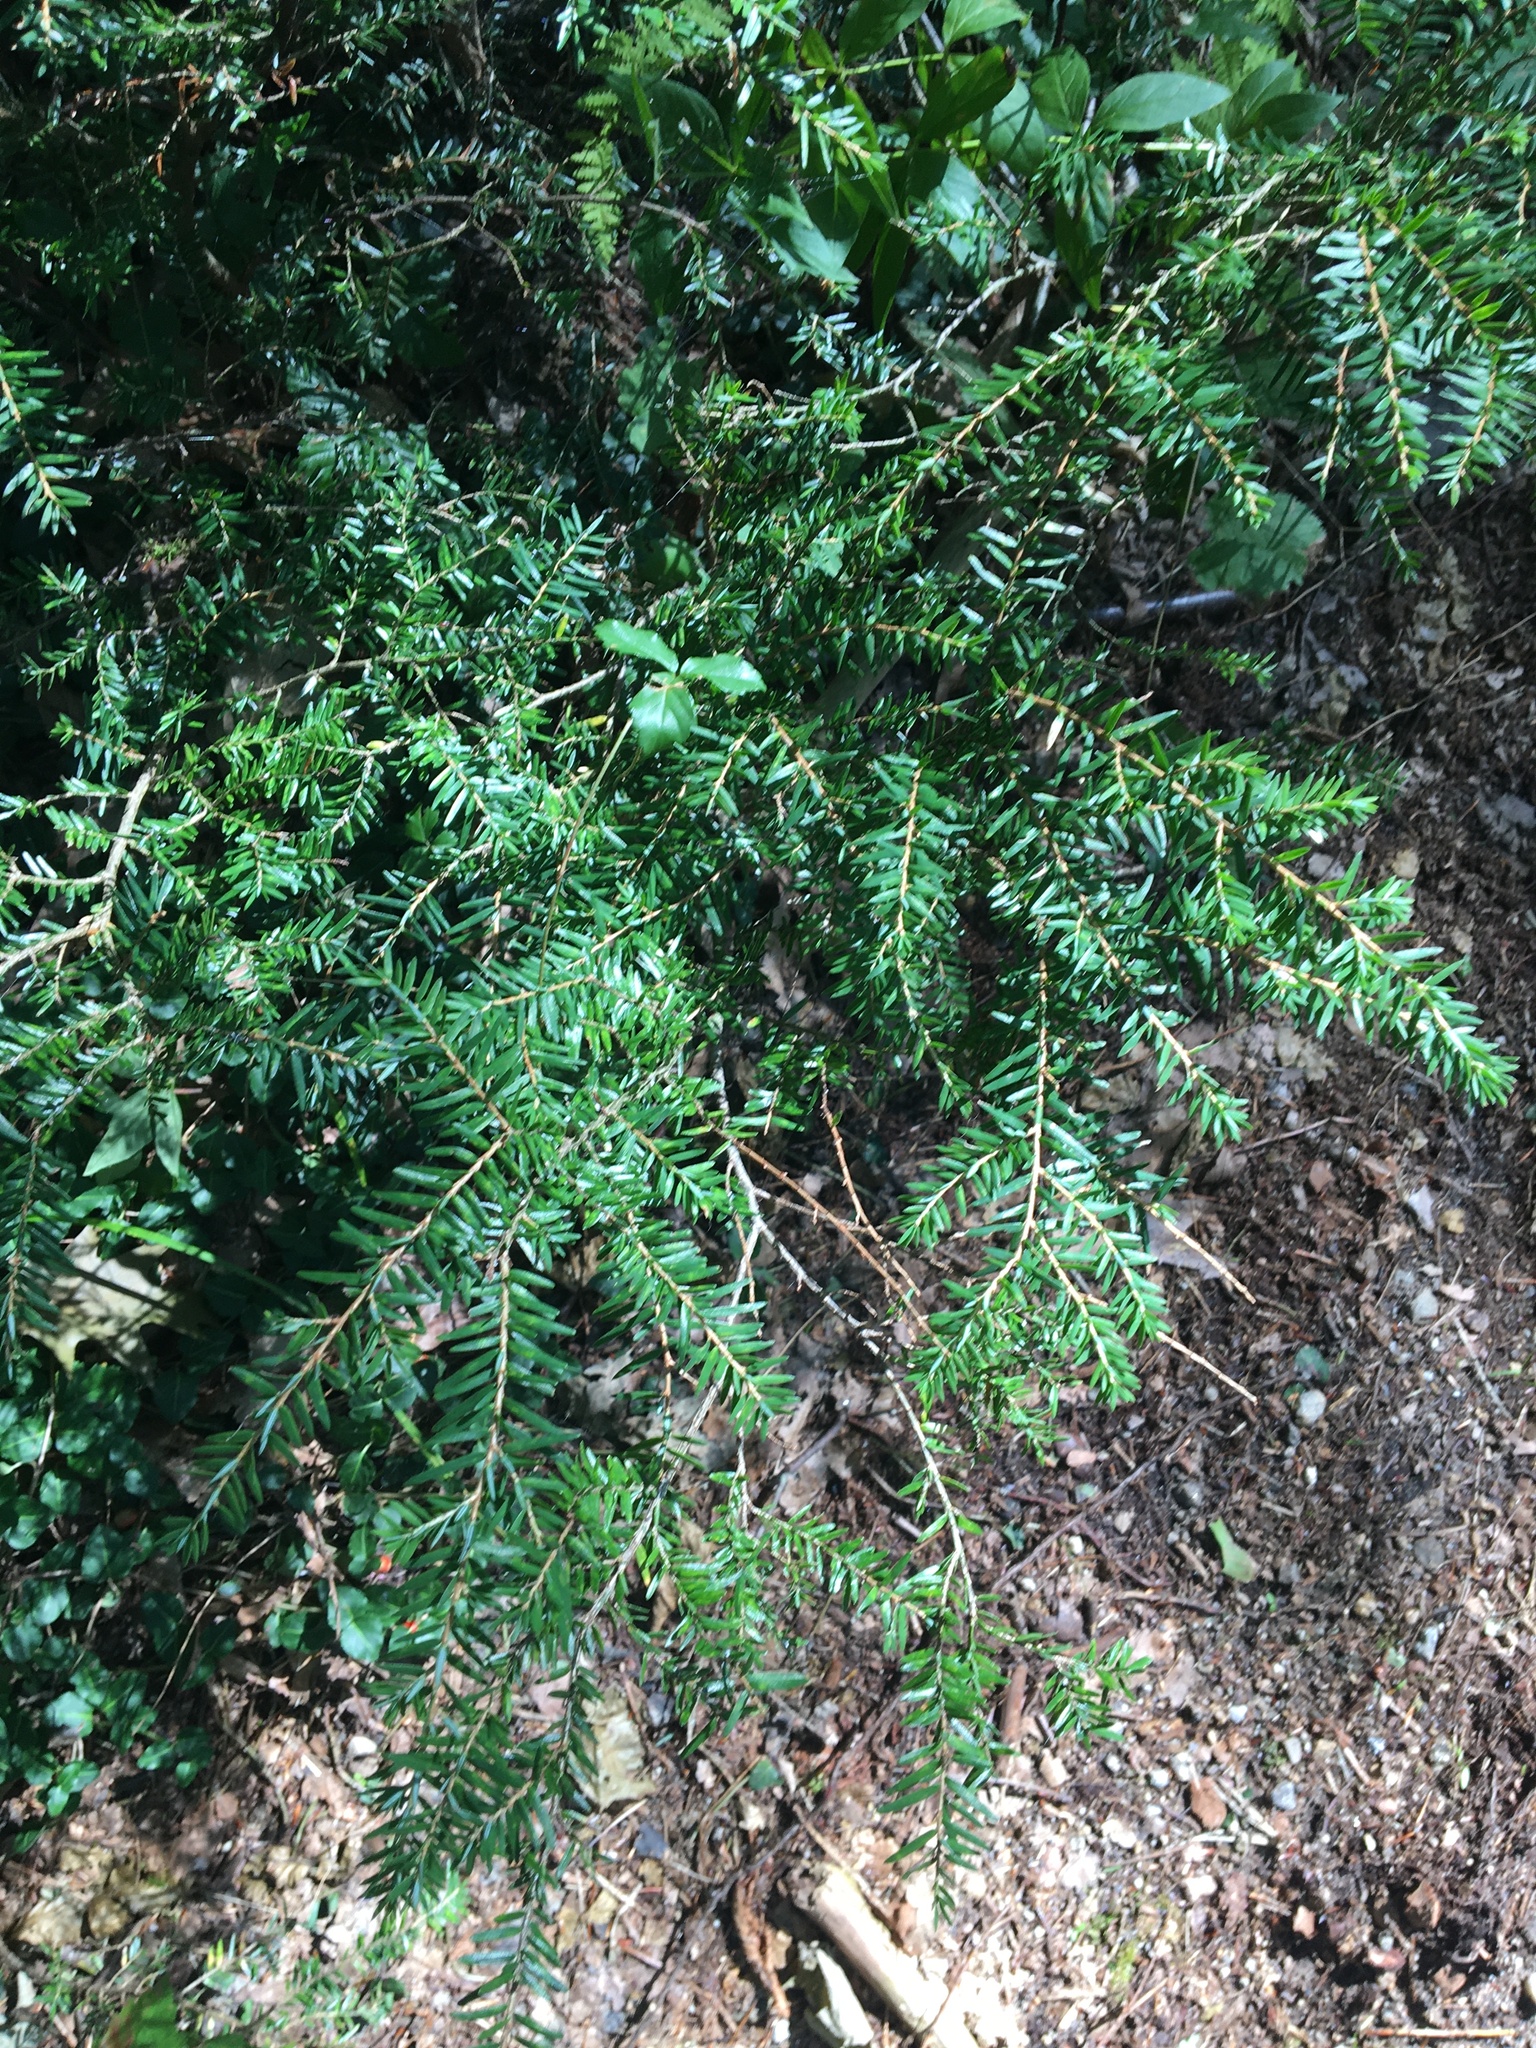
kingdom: Plantae
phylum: Tracheophyta
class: Pinopsida
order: Pinales
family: Pinaceae
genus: Tsuga
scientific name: Tsuga canadensis
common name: Eastern hemlock
